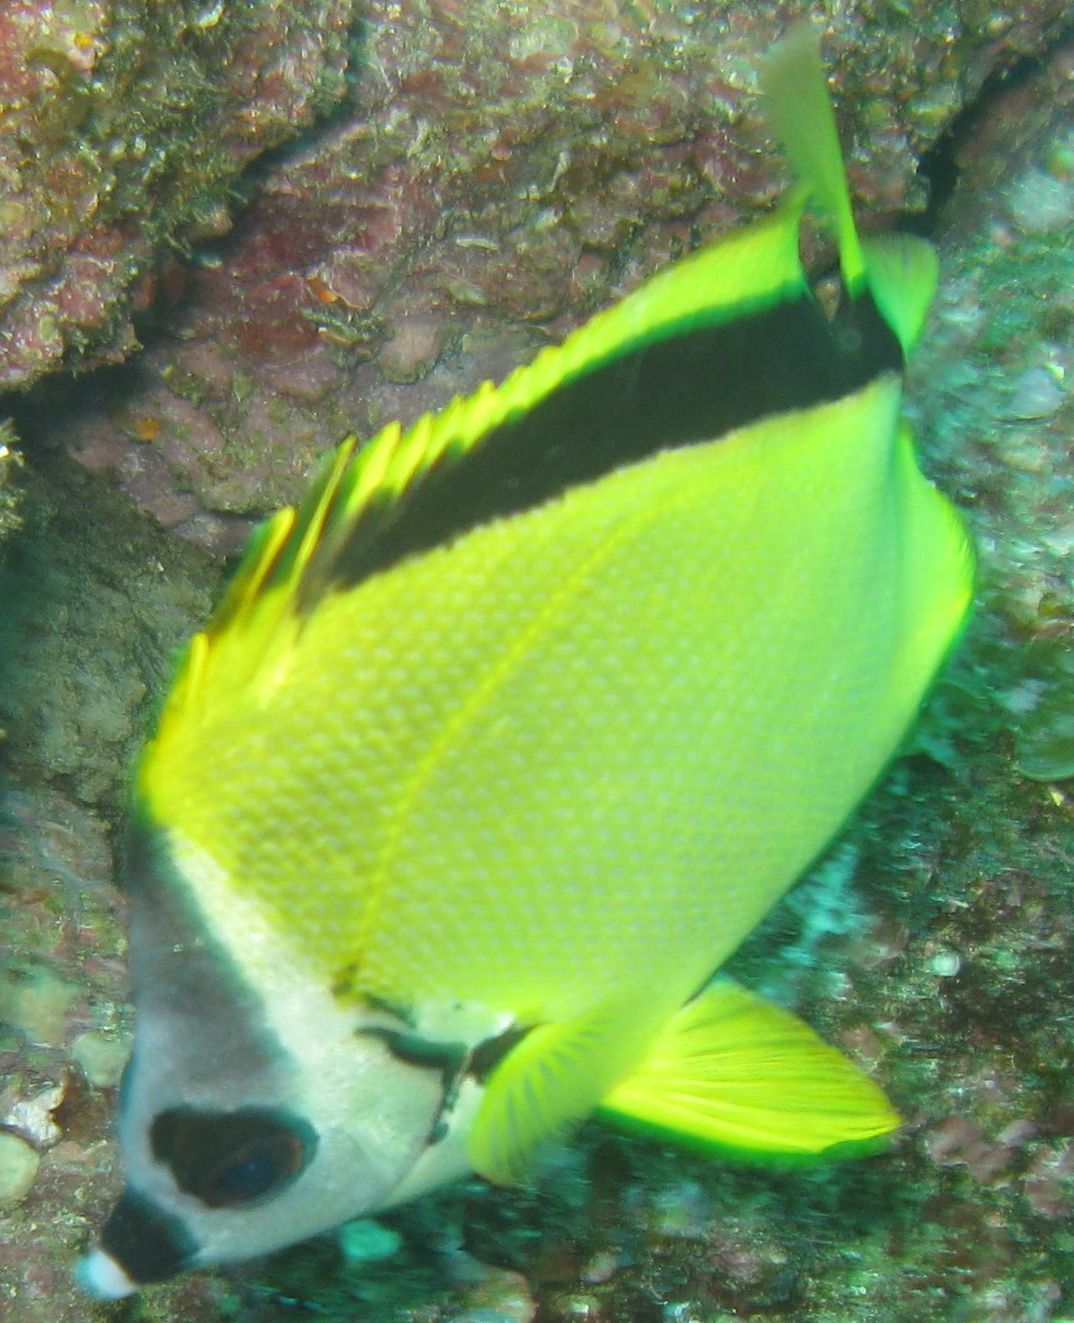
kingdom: Animalia
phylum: Chordata
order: Perciformes
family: Chaetodontidae
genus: Johnrandallia
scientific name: Johnrandallia nigrirostris
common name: Barberfish
